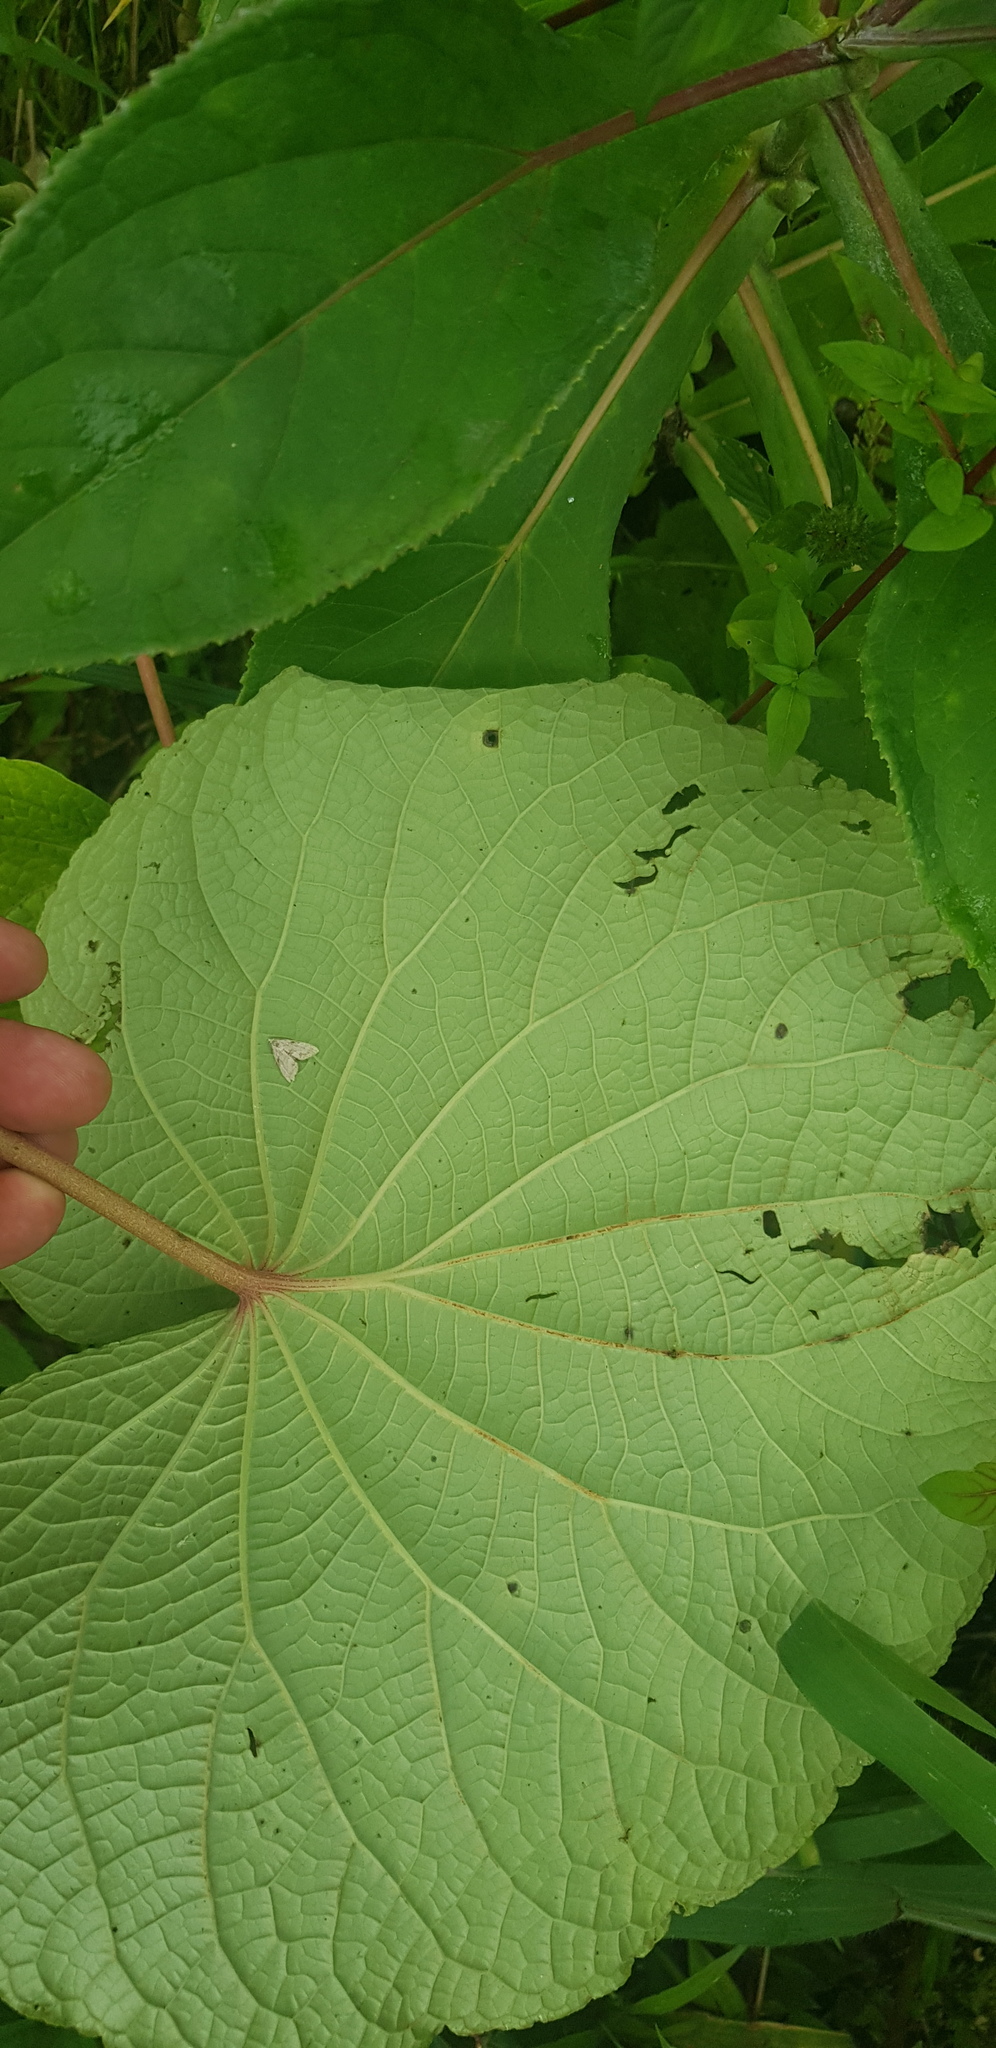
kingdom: Plantae
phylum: Tracheophyta
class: Magnoliopsida
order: Piperales
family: Piperaceae
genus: Piper
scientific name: Piper umbellatum
